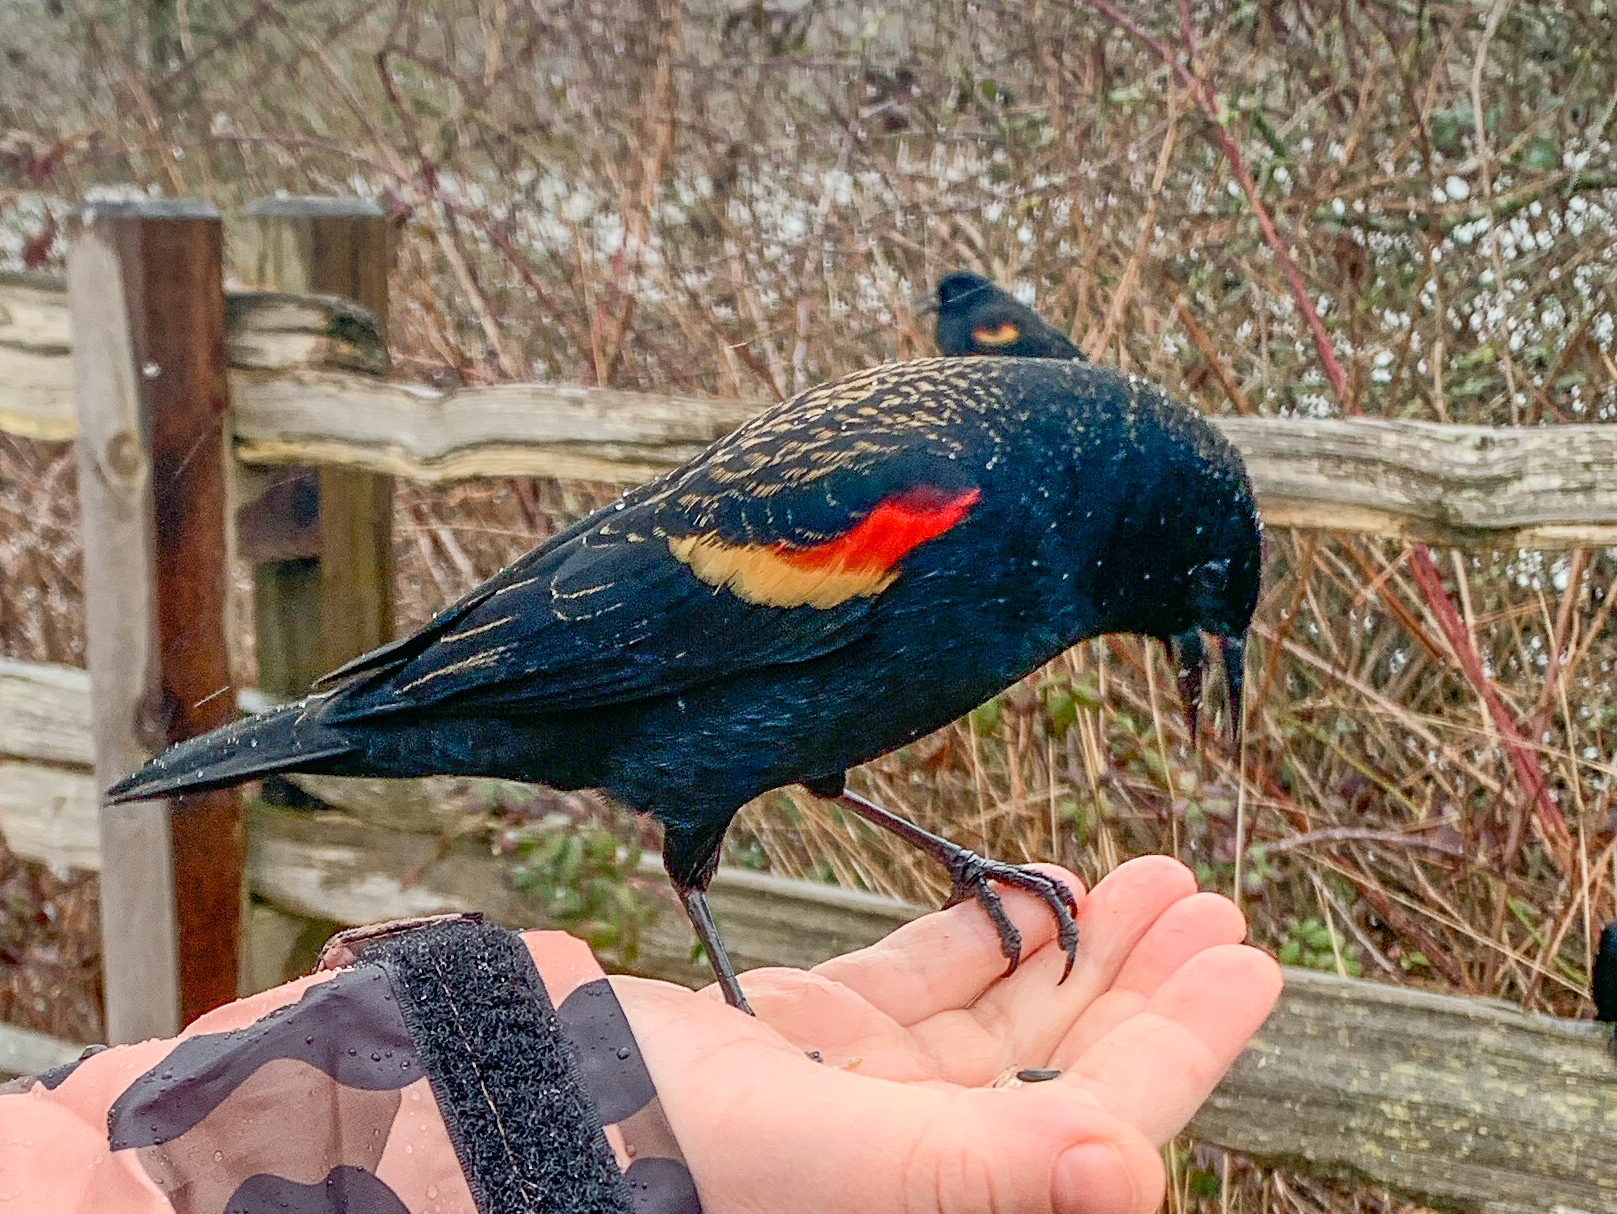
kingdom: Animalia
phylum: Chordata
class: Aves
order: Passeriformes
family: Icteridae
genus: Agelaius
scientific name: Agelaius phoeniceus
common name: Red-winged blackbird
